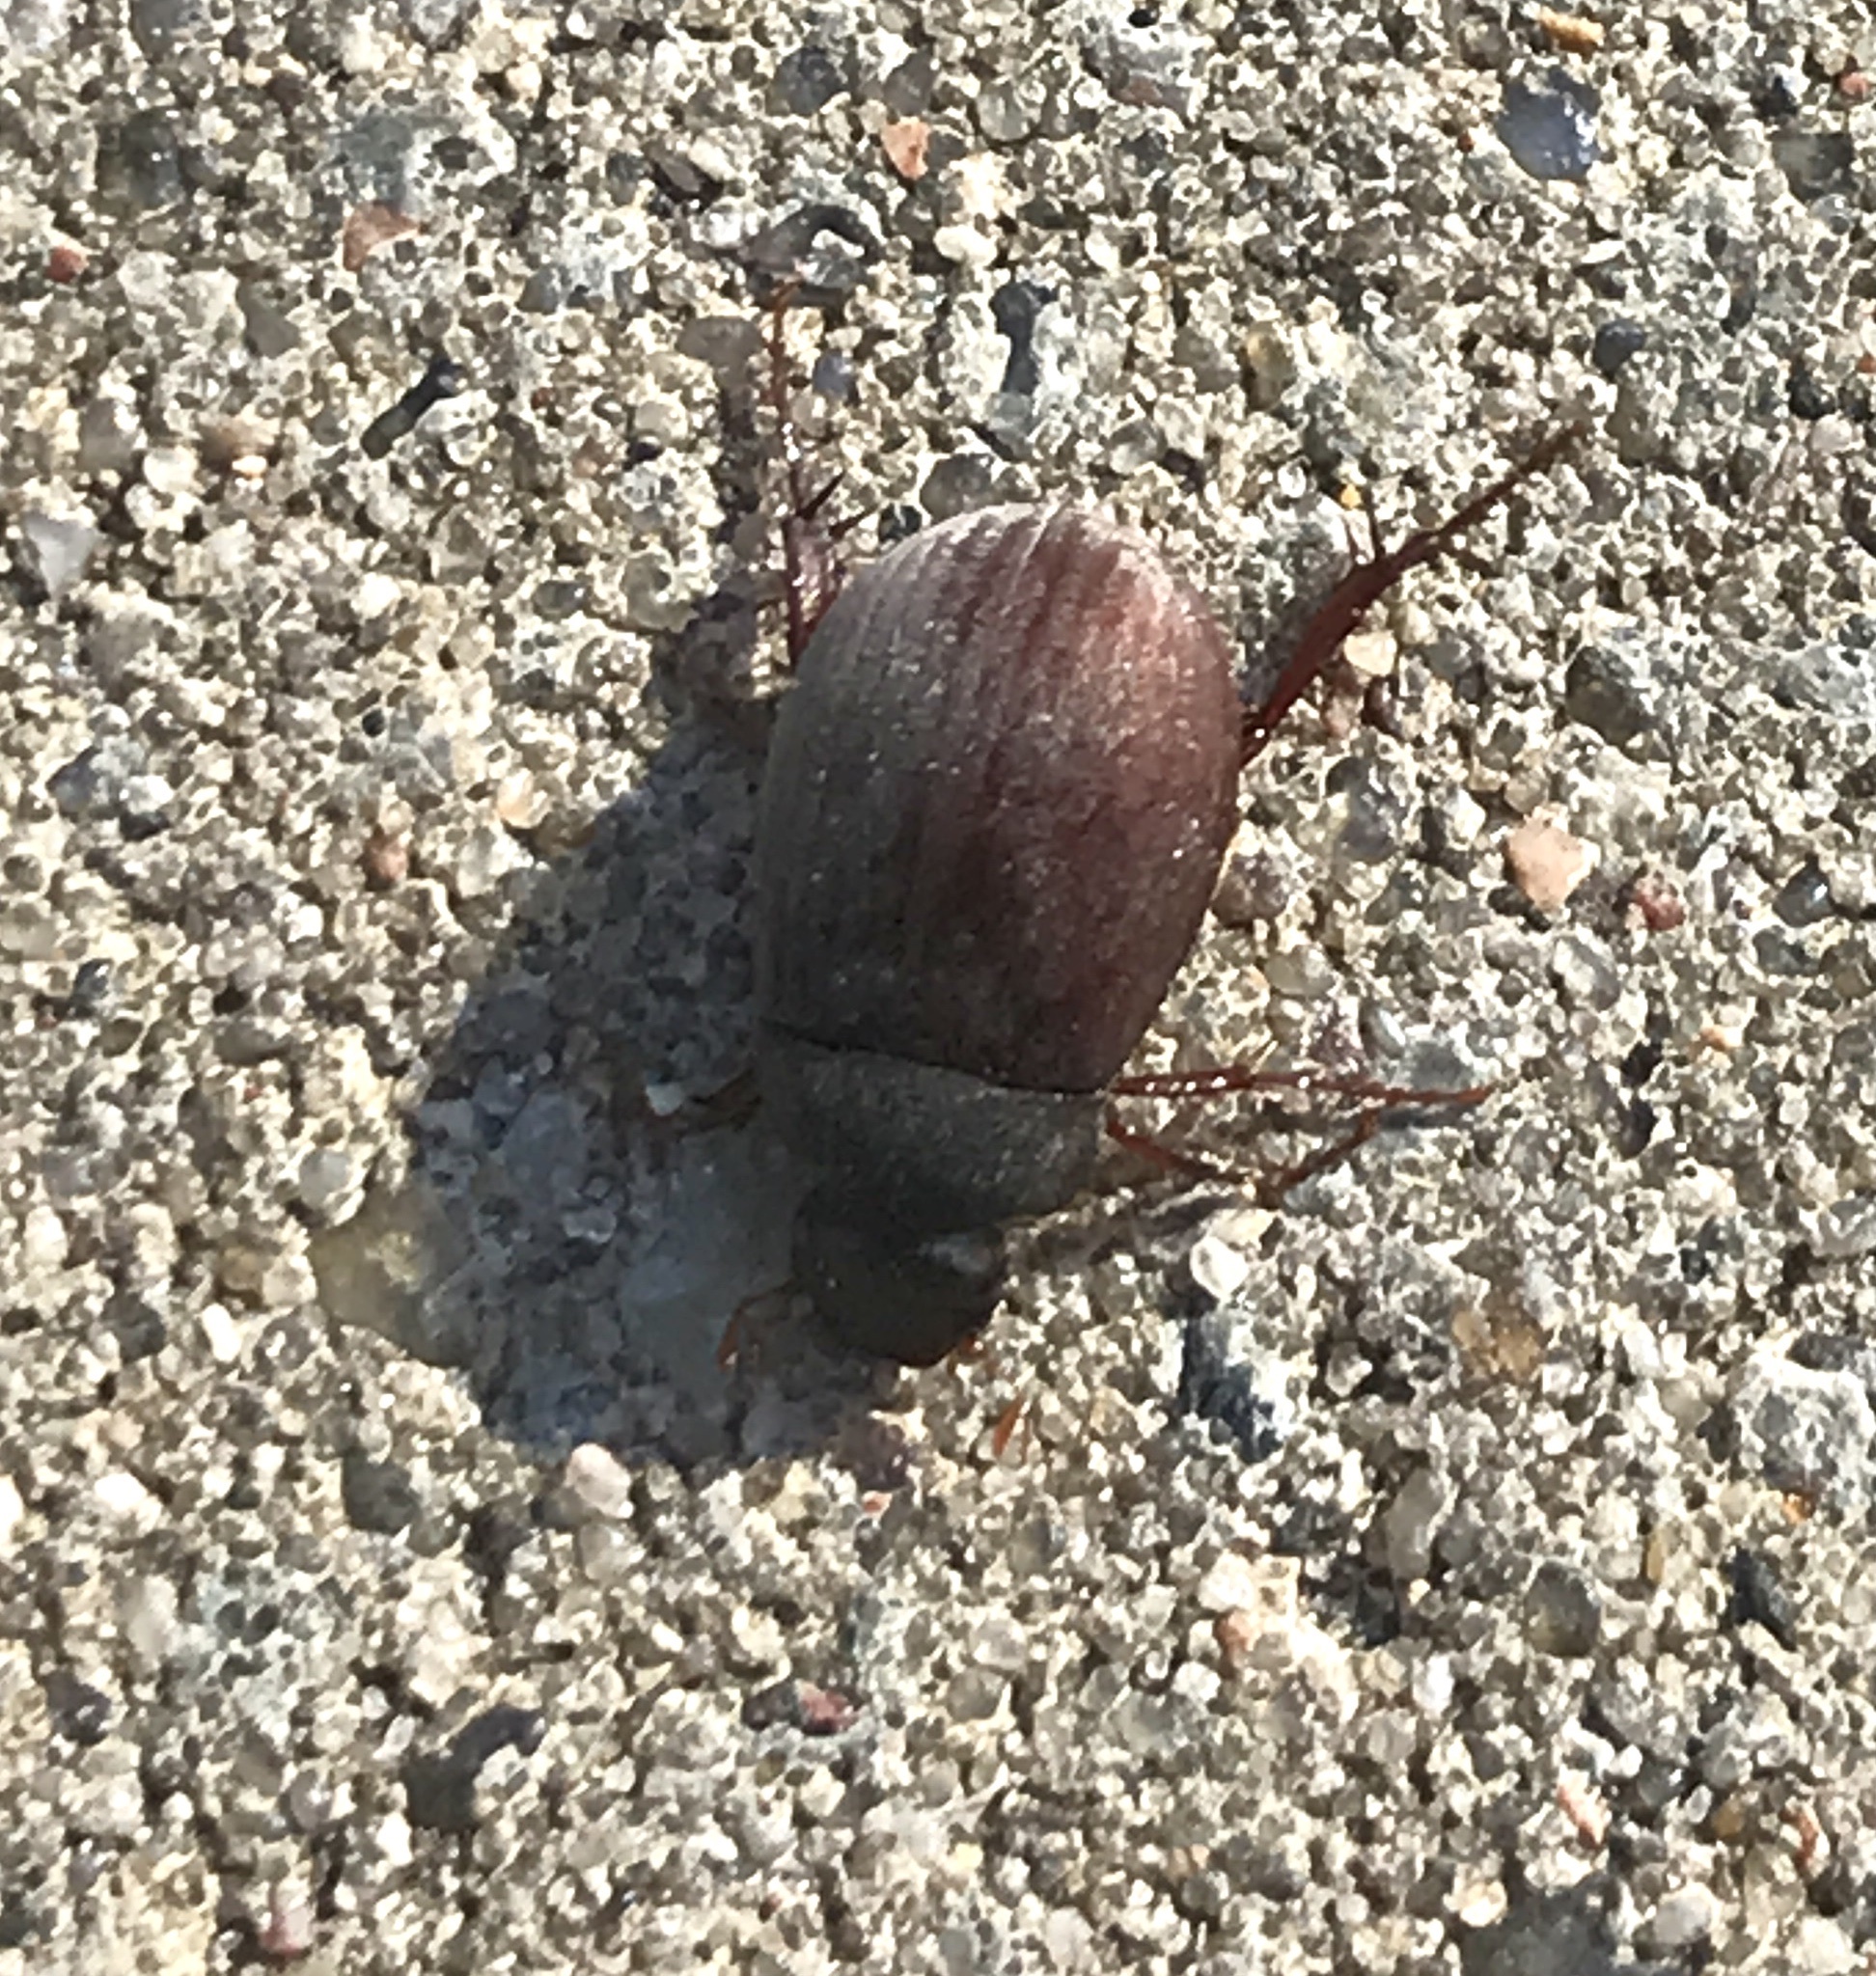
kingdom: Animalia
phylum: Arthropoda
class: Insecta
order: Coleoptera
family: Scarabaeidae
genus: Maladera
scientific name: Maladera holosericea
